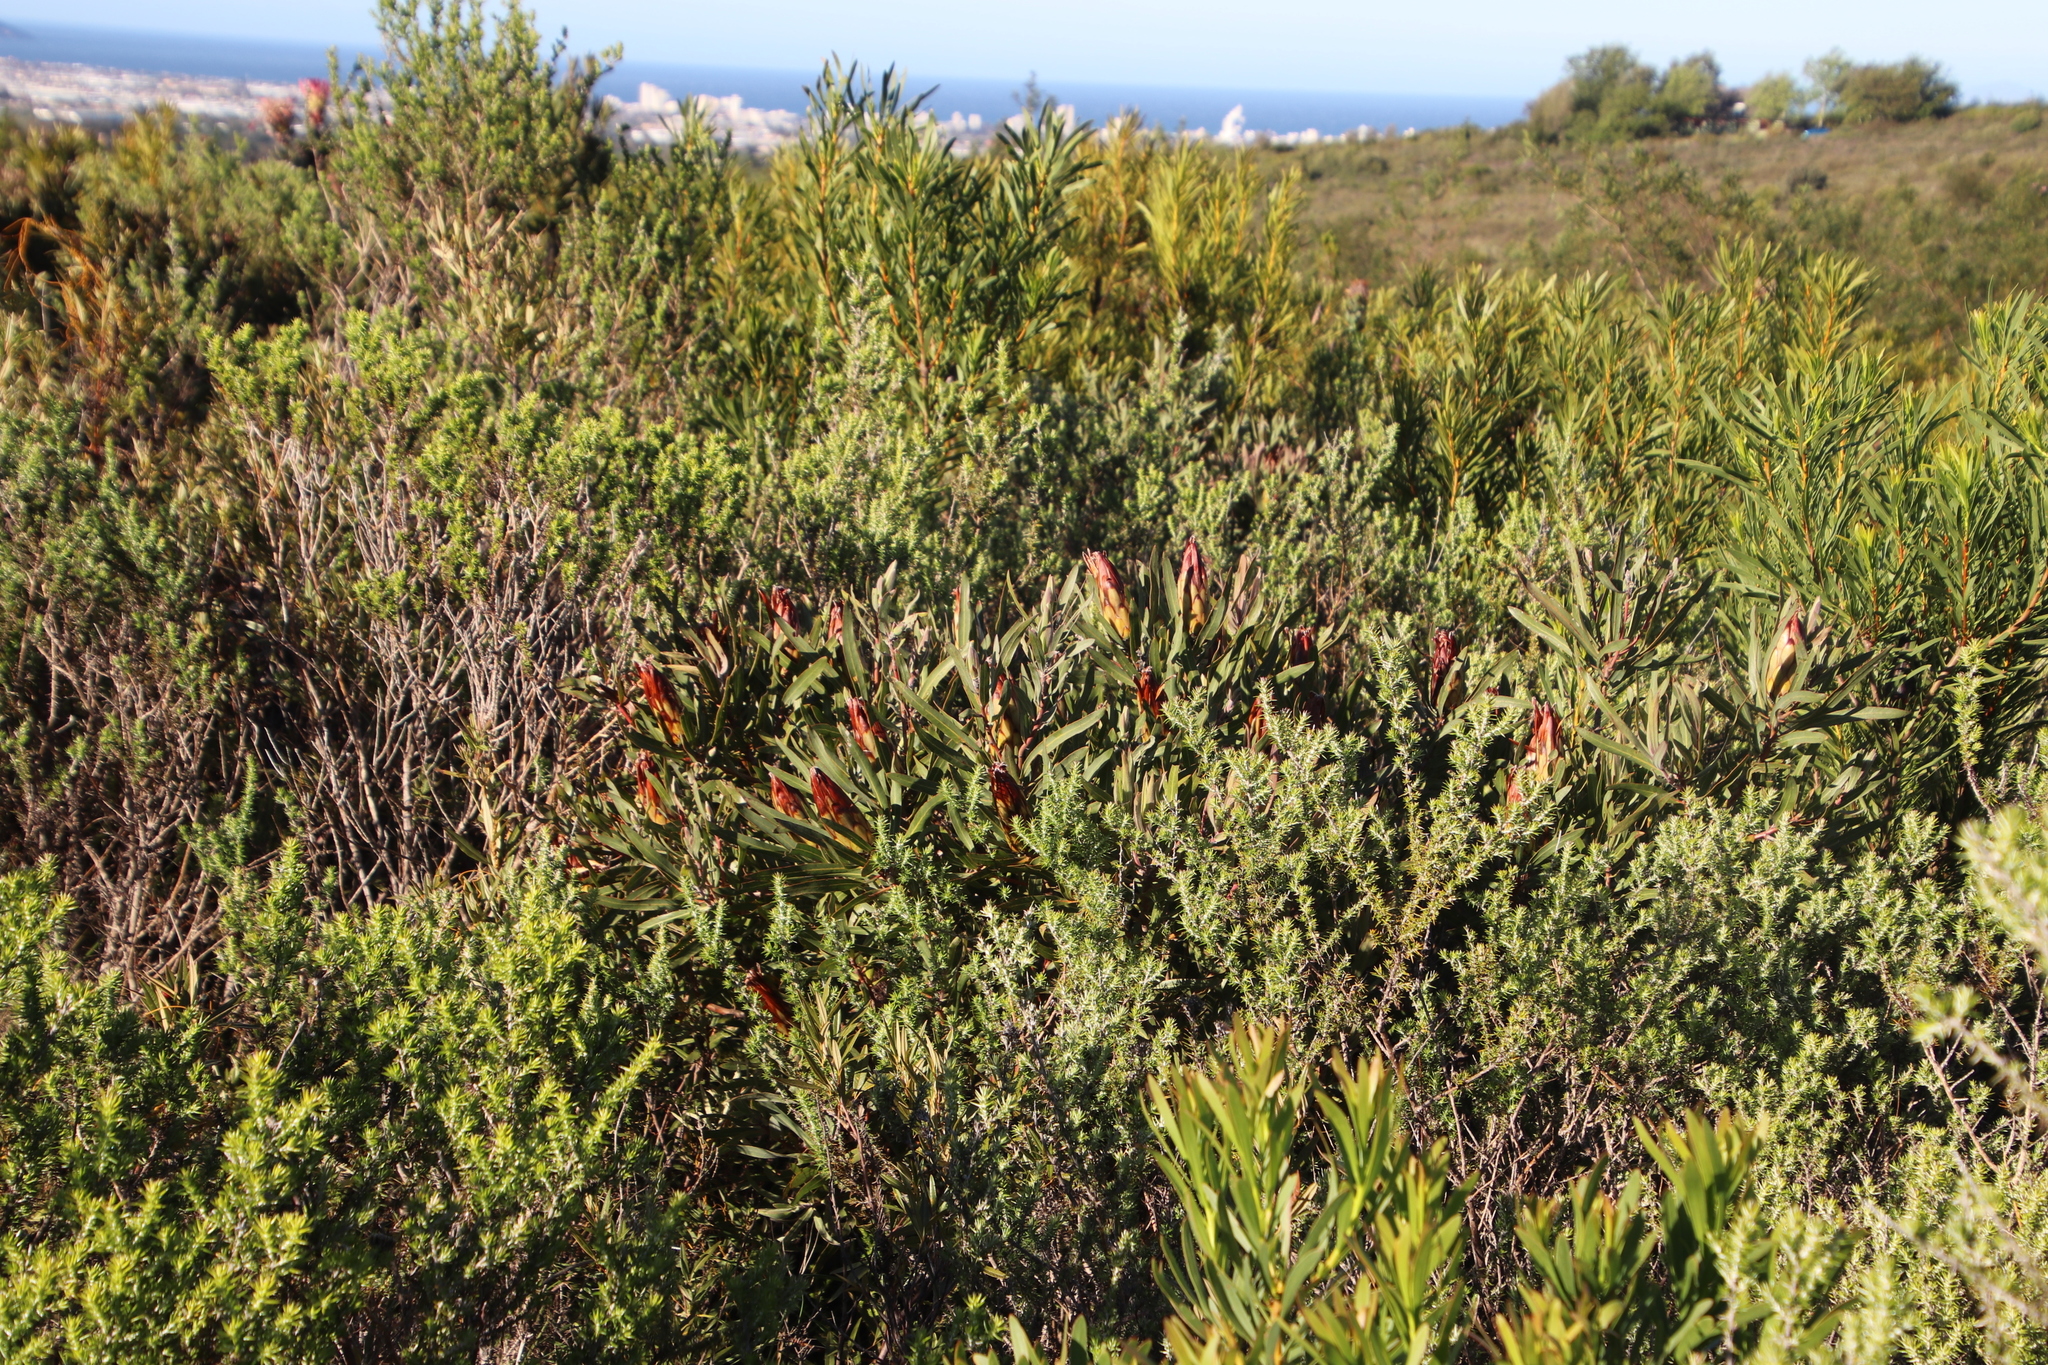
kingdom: Plantae
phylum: Tracheophyta
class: Magnoliopsida
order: Proteales
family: Proteaceae
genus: Protea
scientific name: Protea burchellii
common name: Burchell's sugarbush
